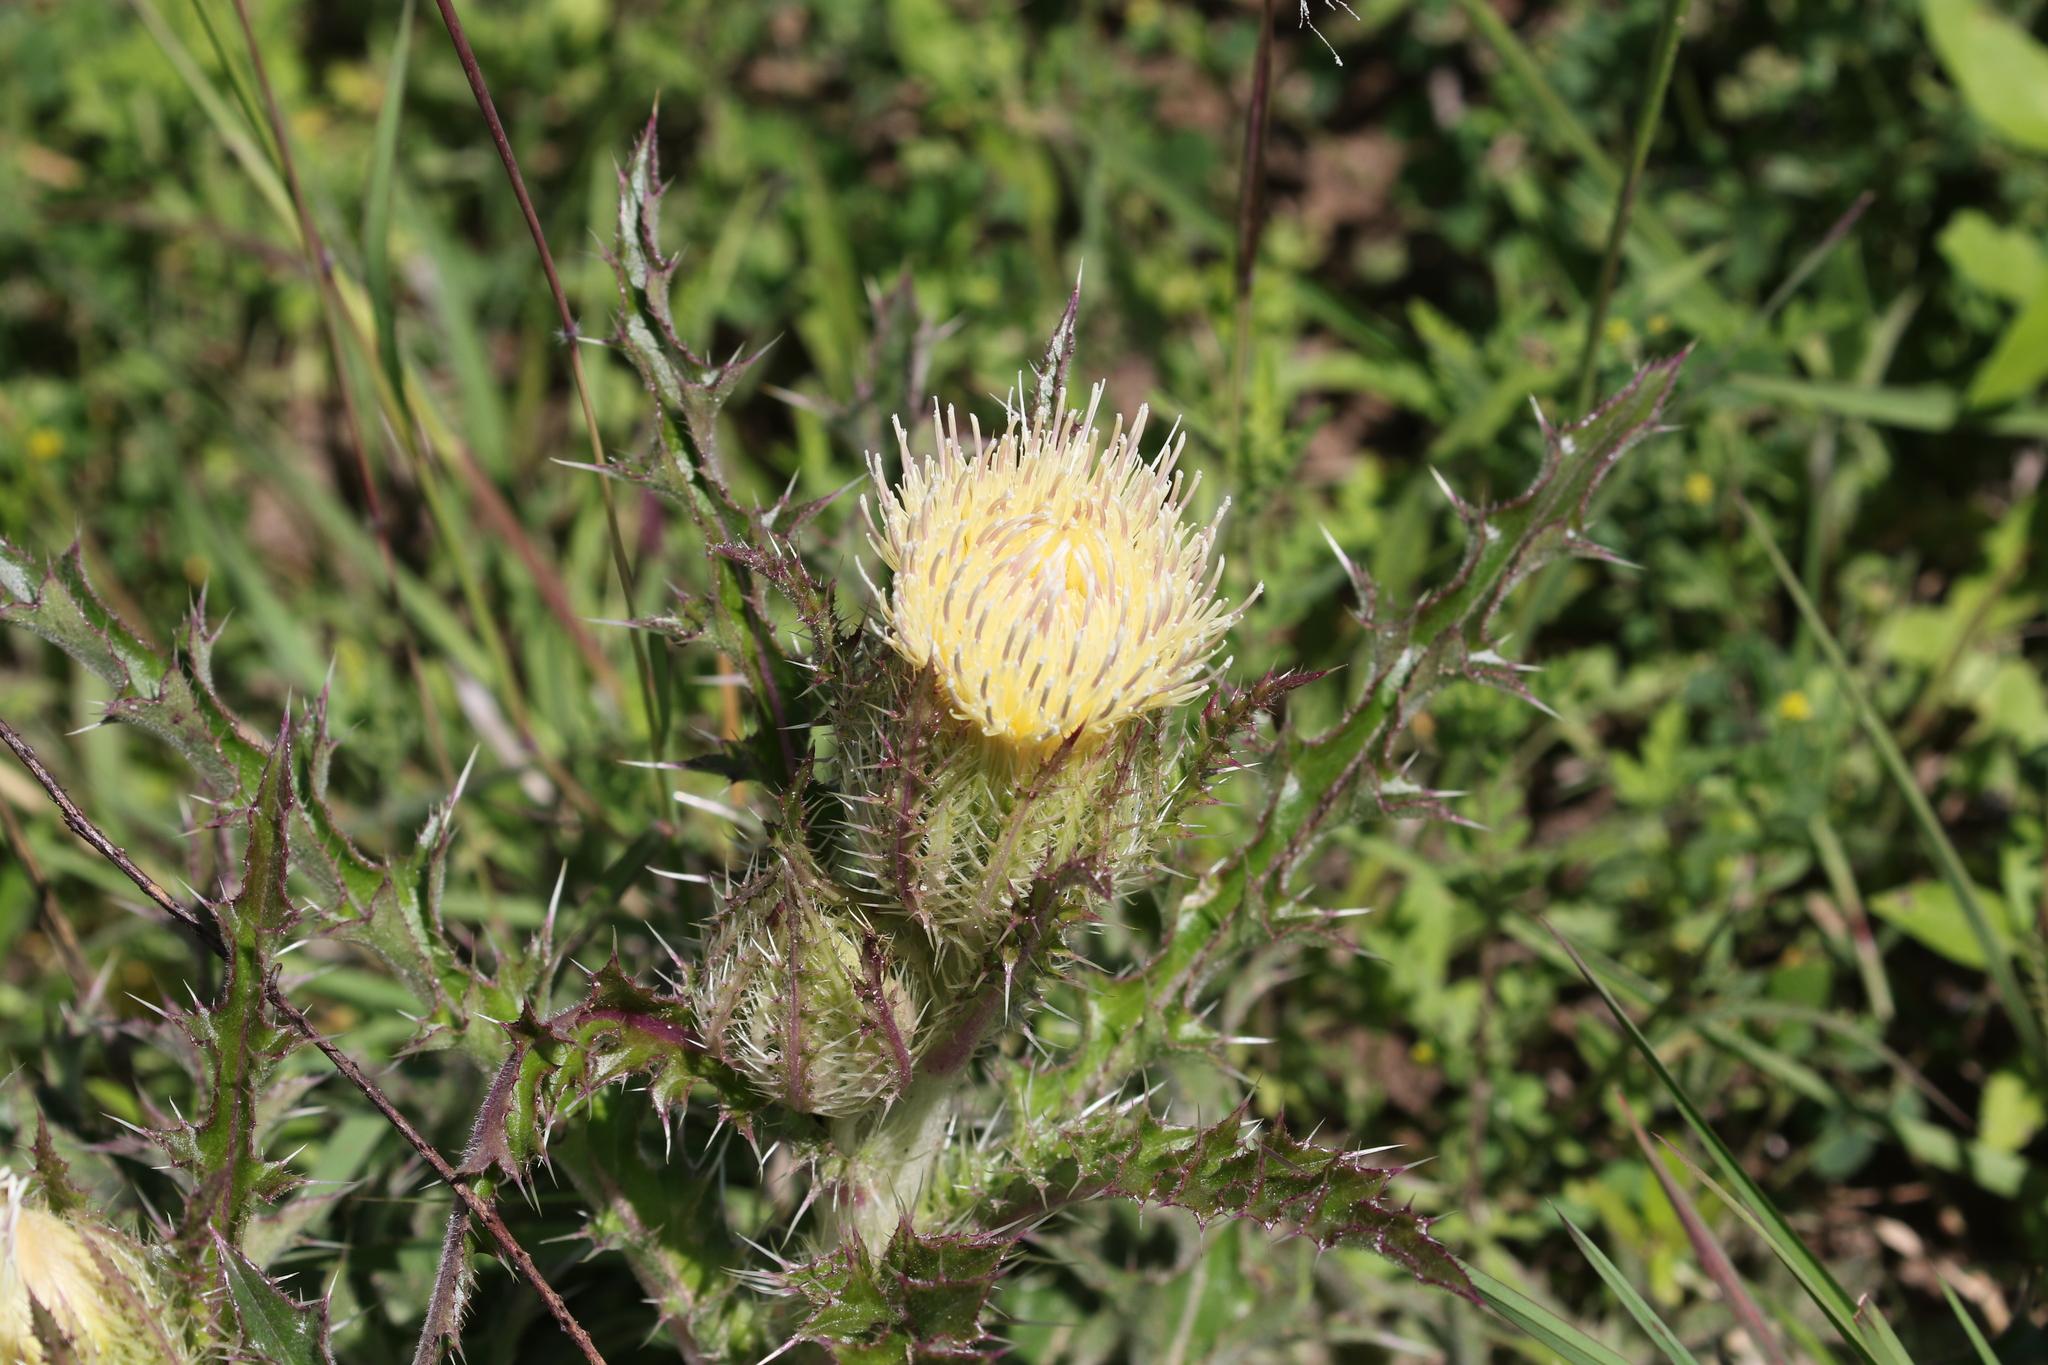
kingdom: Plantae
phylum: Tracheophyta
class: Magnoliopsida
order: Asterales
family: Asteraceae
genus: Cirsium
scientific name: Cirsium horridulum
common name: Bristly thistle
